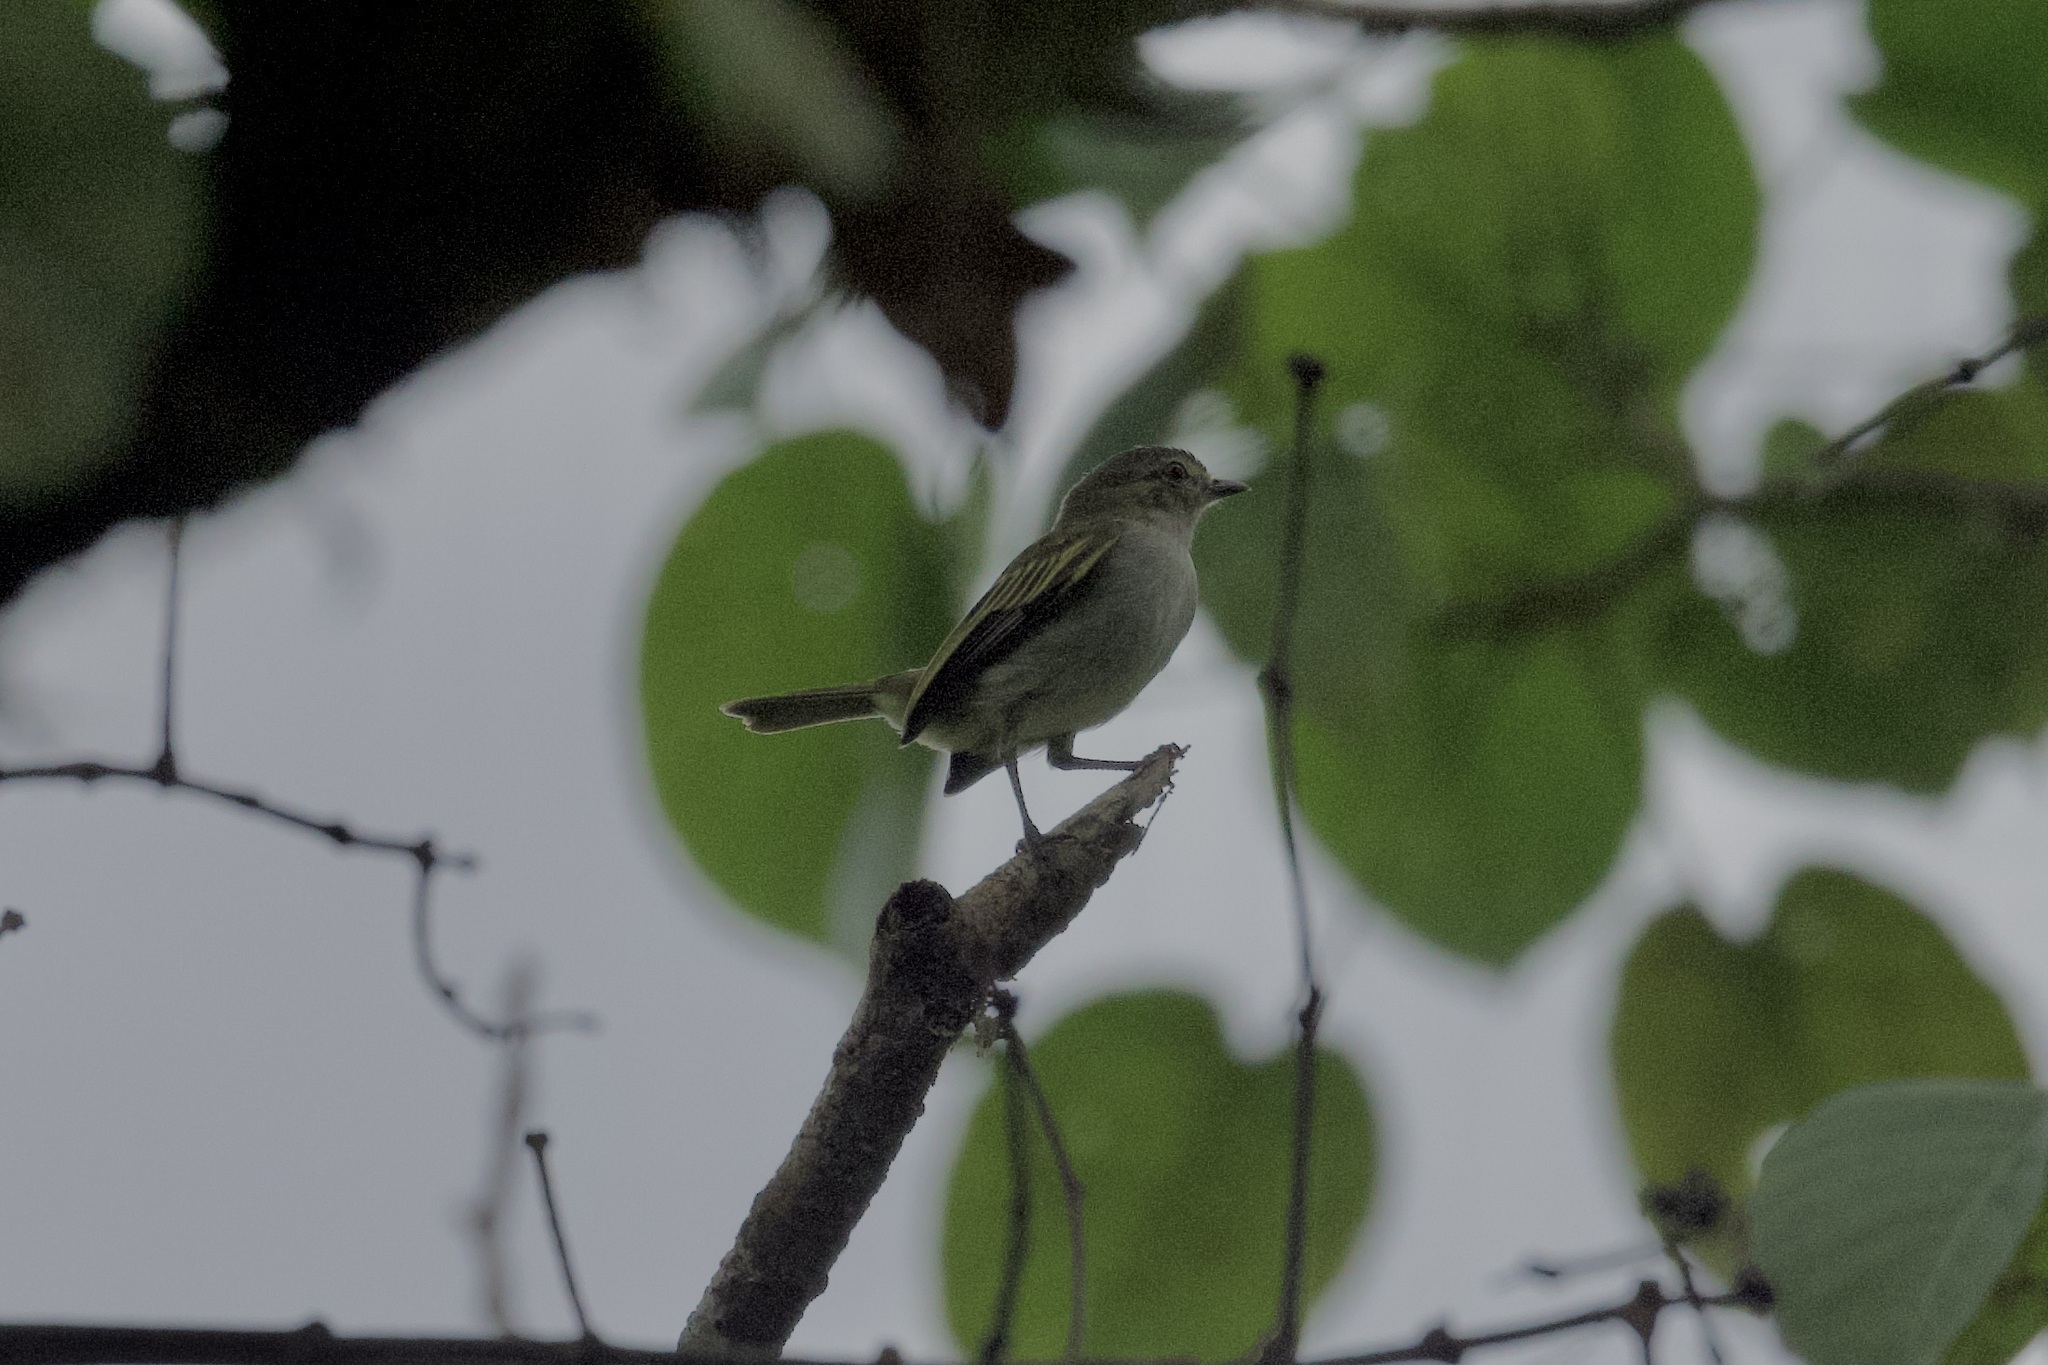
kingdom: Animalia
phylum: Chordata
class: Aves
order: Passeriformes
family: Tyrannidae
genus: Zimmerius
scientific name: Zimmerius vilissimus
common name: Paltry tyrannulet
